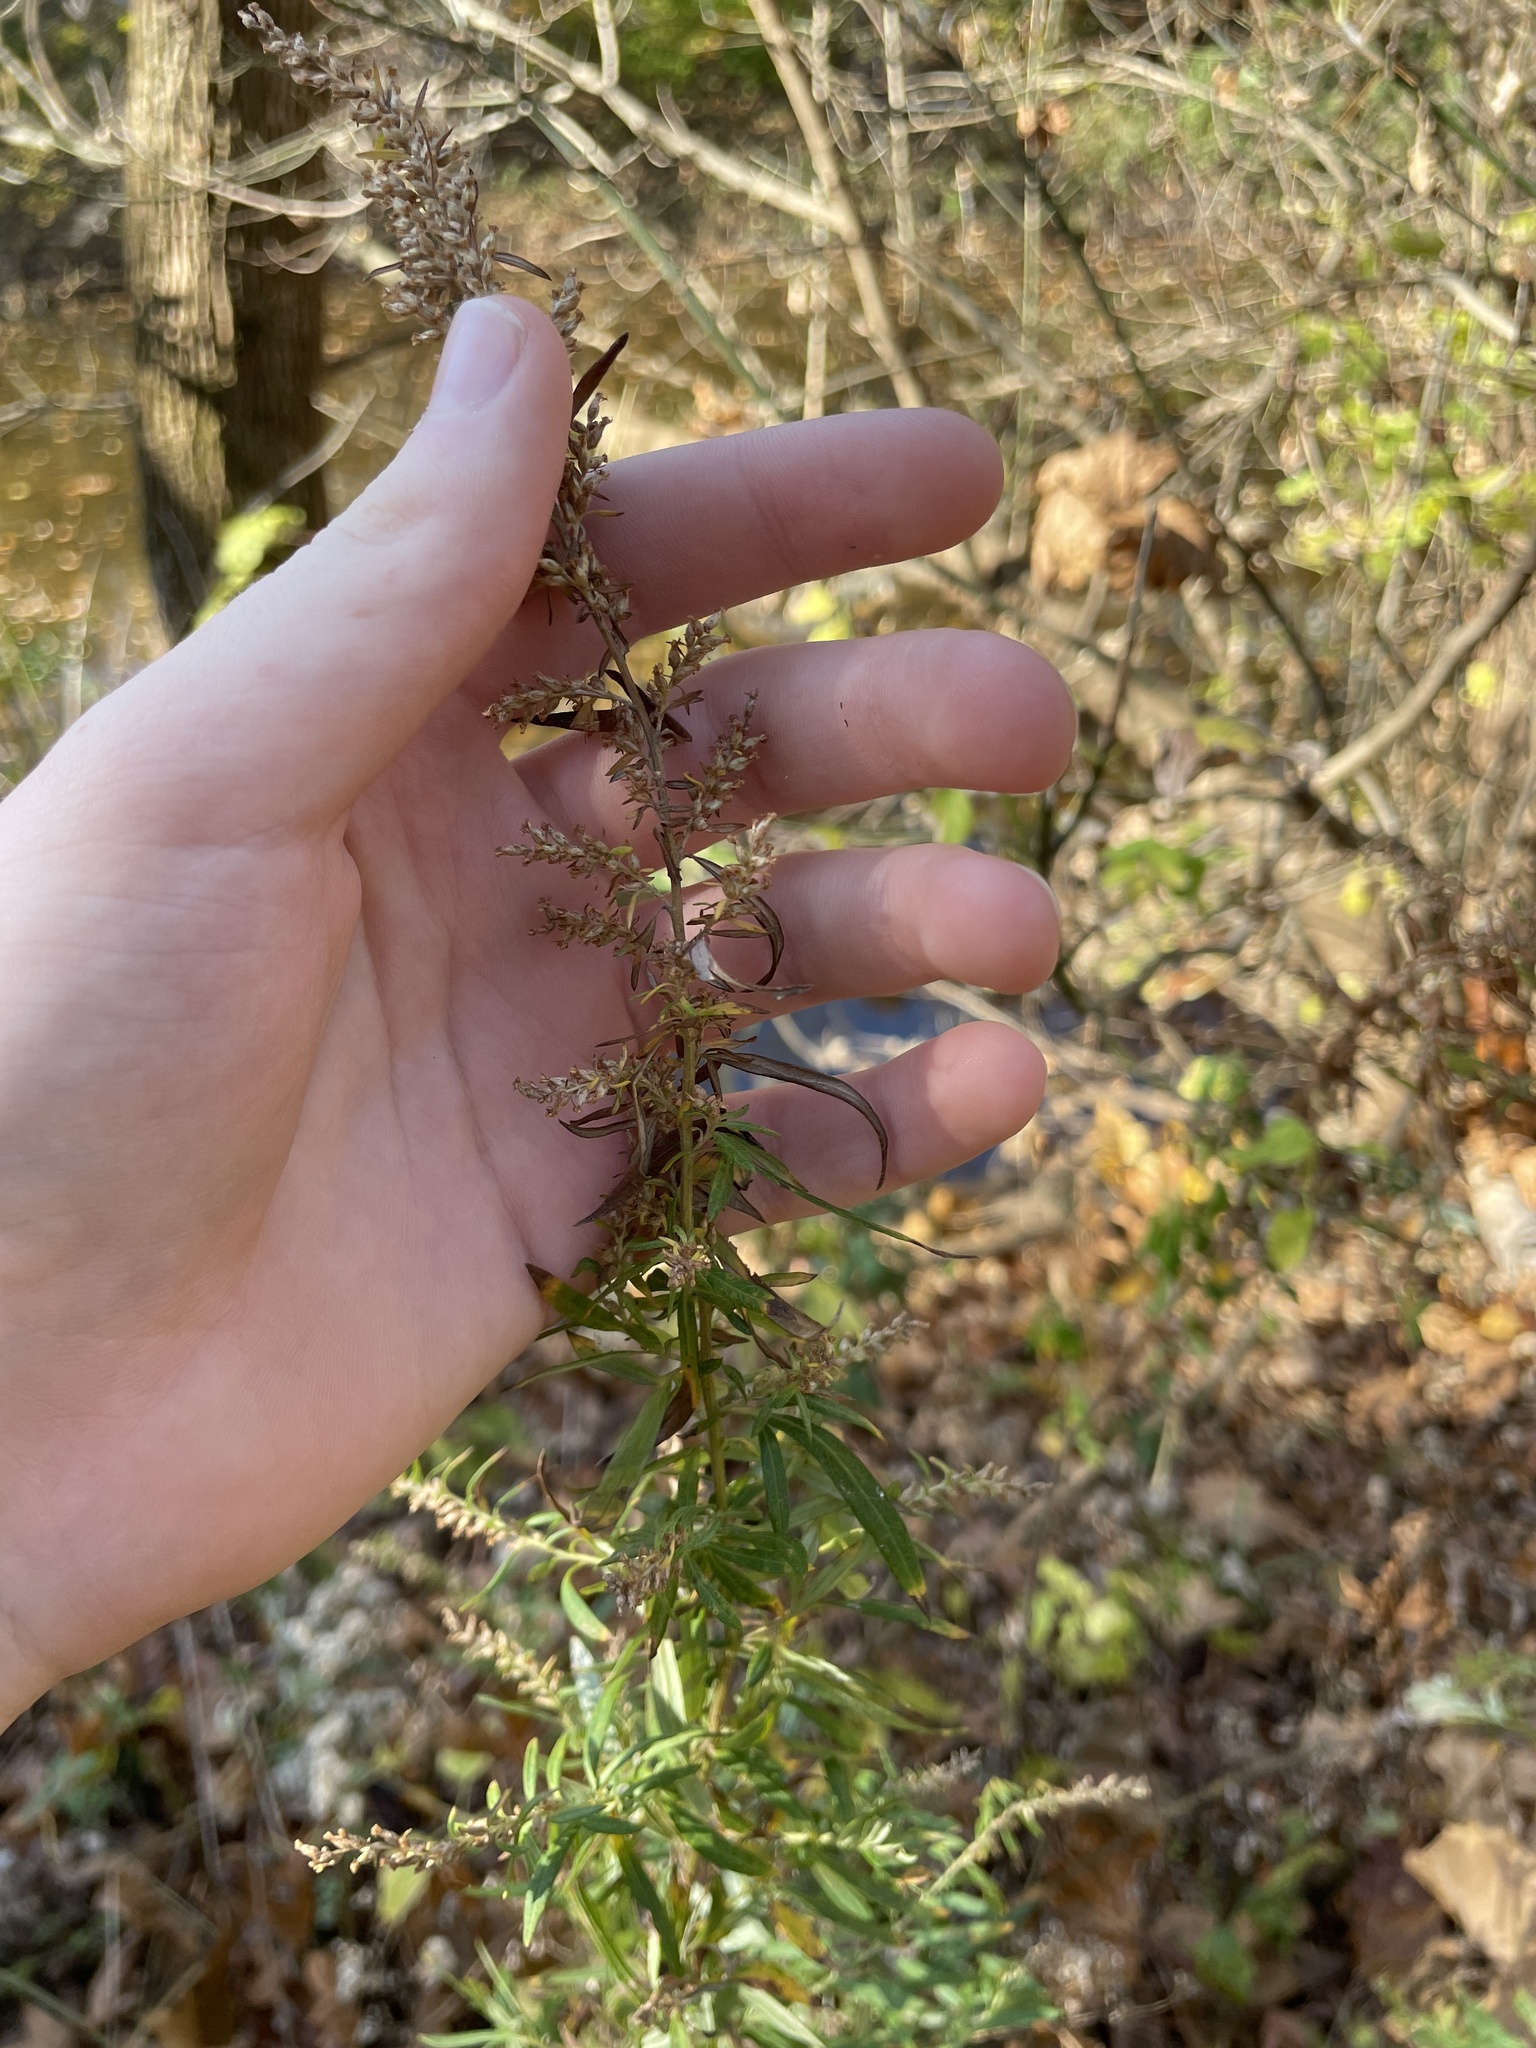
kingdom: Plantae
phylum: Tracheophyta
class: Magnoliopsida
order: Asterales
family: Asteraceae
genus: Artemisia
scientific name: Artemisia vulgaris
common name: Mugwort
